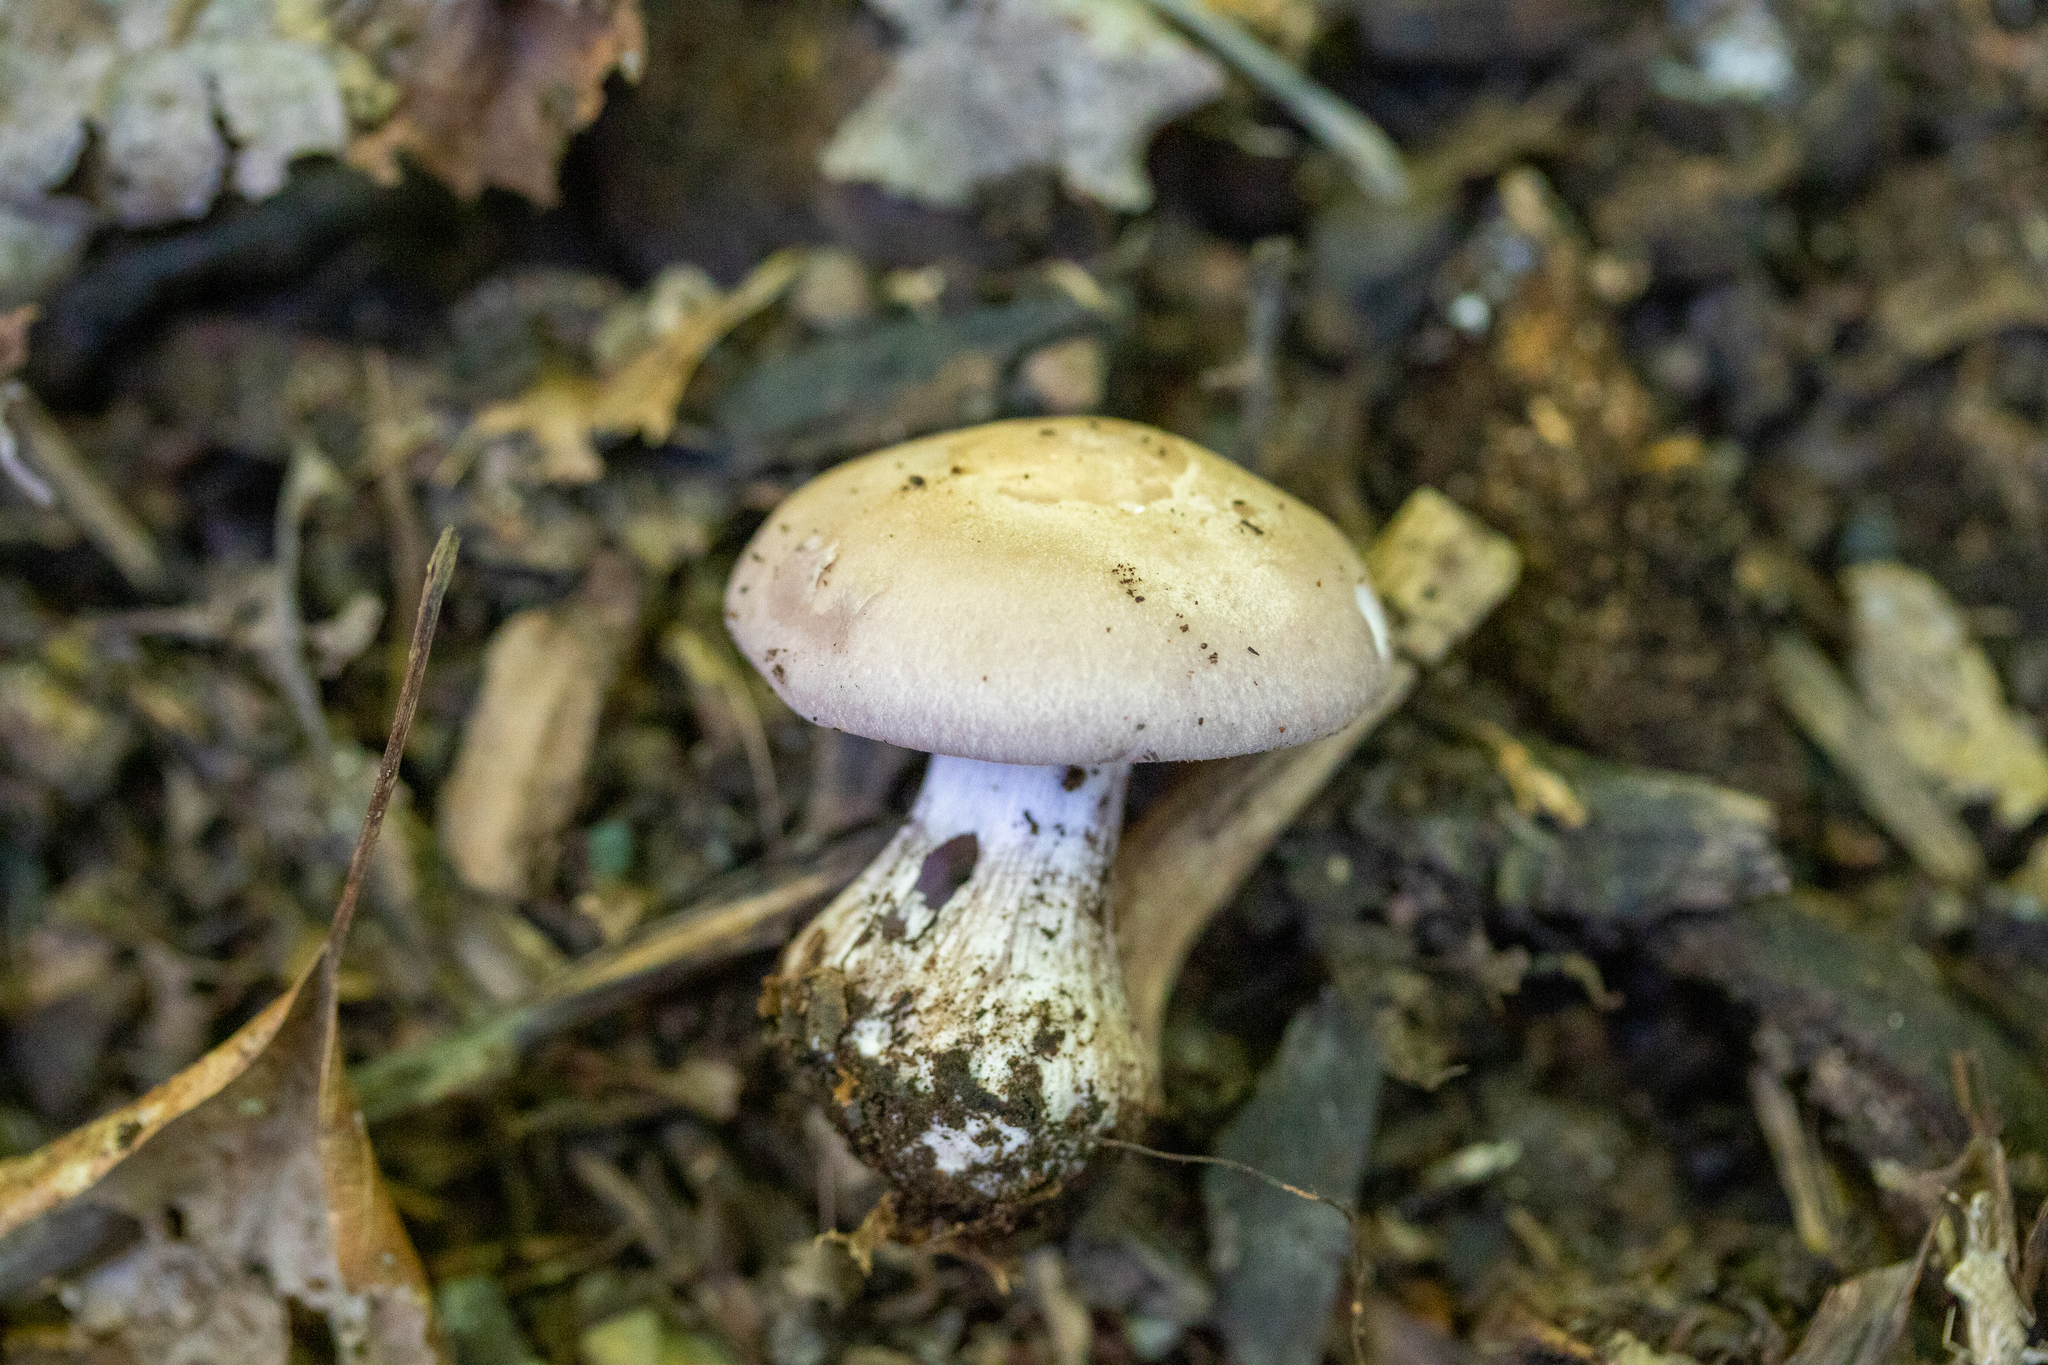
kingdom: Fungi
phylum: Basidiomycota
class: Agaricomycetes
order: Agaricales
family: Tricholomataceae
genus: Collybia
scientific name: Collybia
